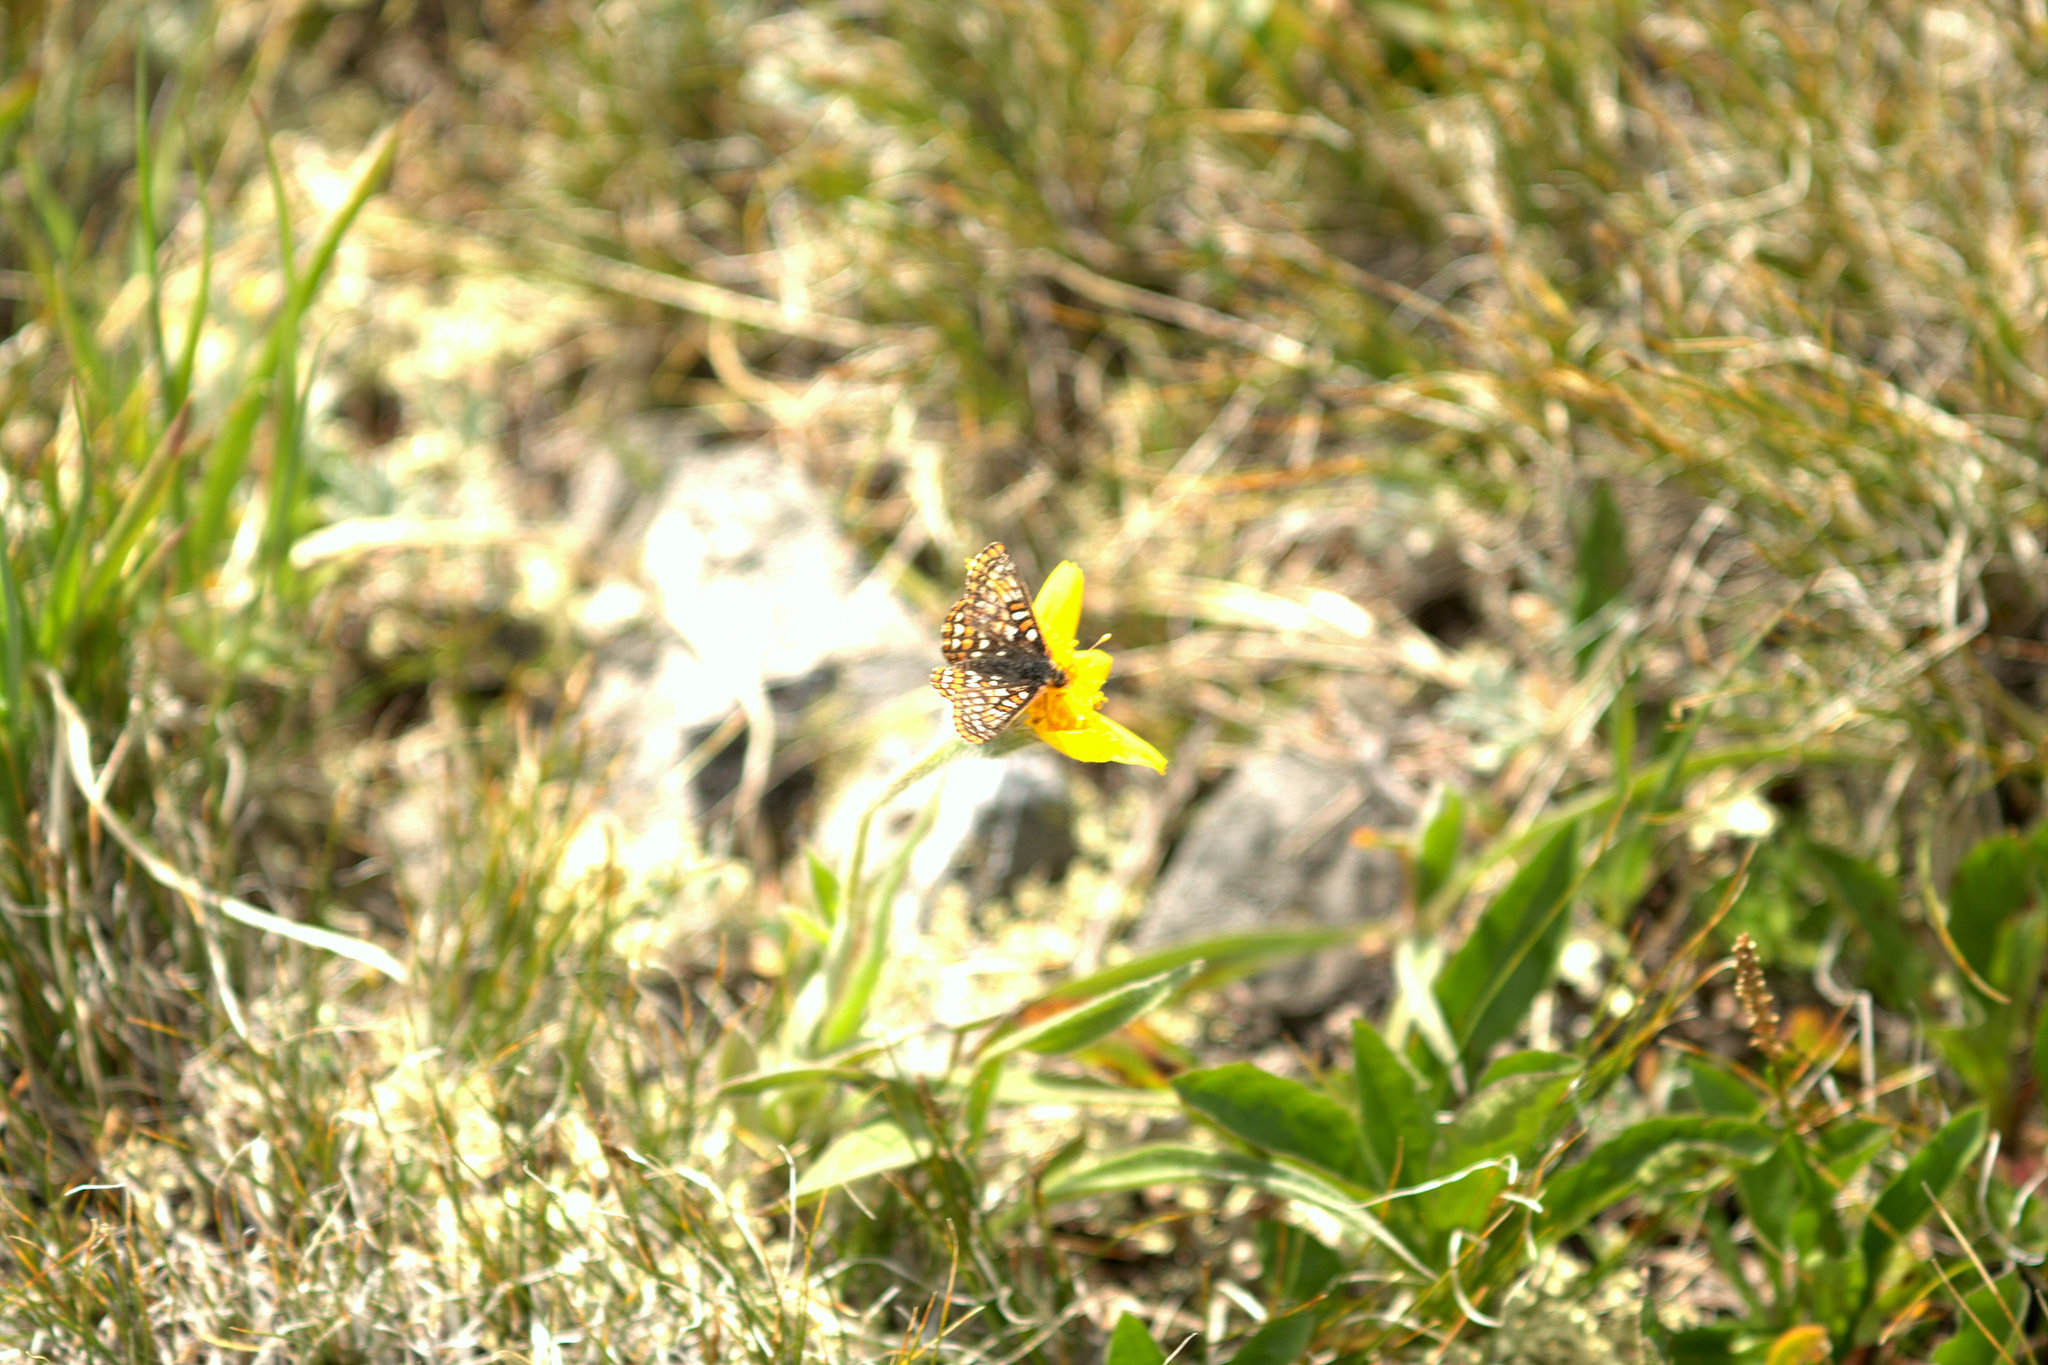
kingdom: Animalia
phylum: Arthropoda
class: Insecta
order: Lepidoptera
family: Nymphalidae
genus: Occidryas
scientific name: Occidryas anicia
